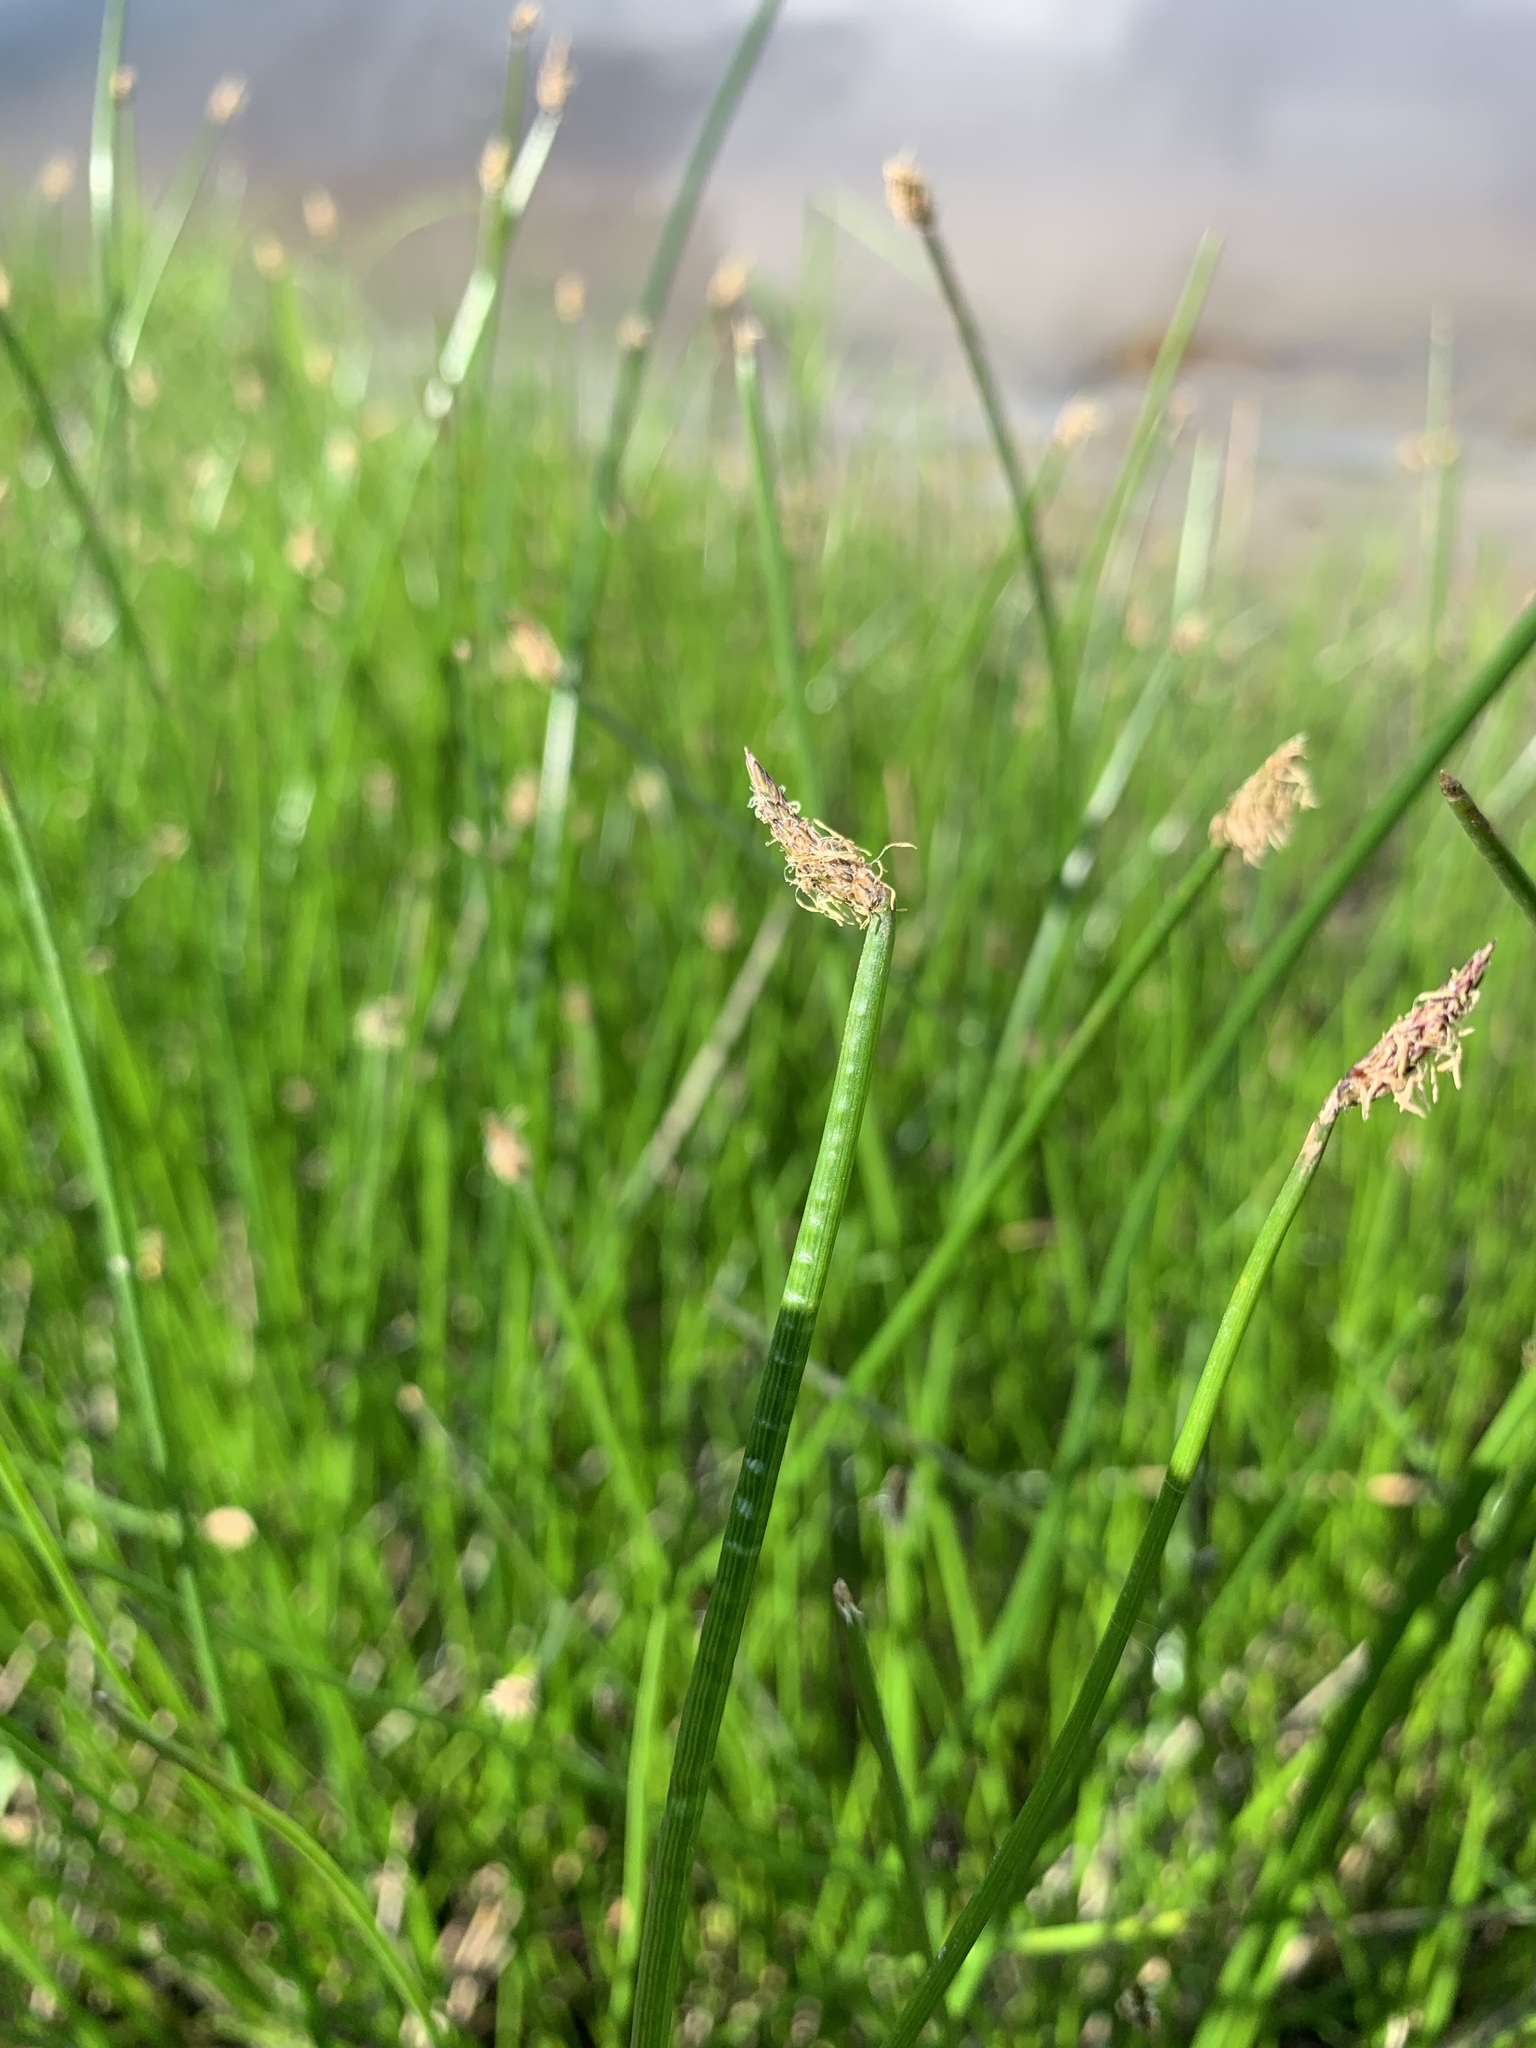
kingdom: Plantae
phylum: Tracheophyta
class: Liliopsida
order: Poales
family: Cyperaceae
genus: Eleocharis
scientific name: Eleocharis palustris
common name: Common spike-rush
